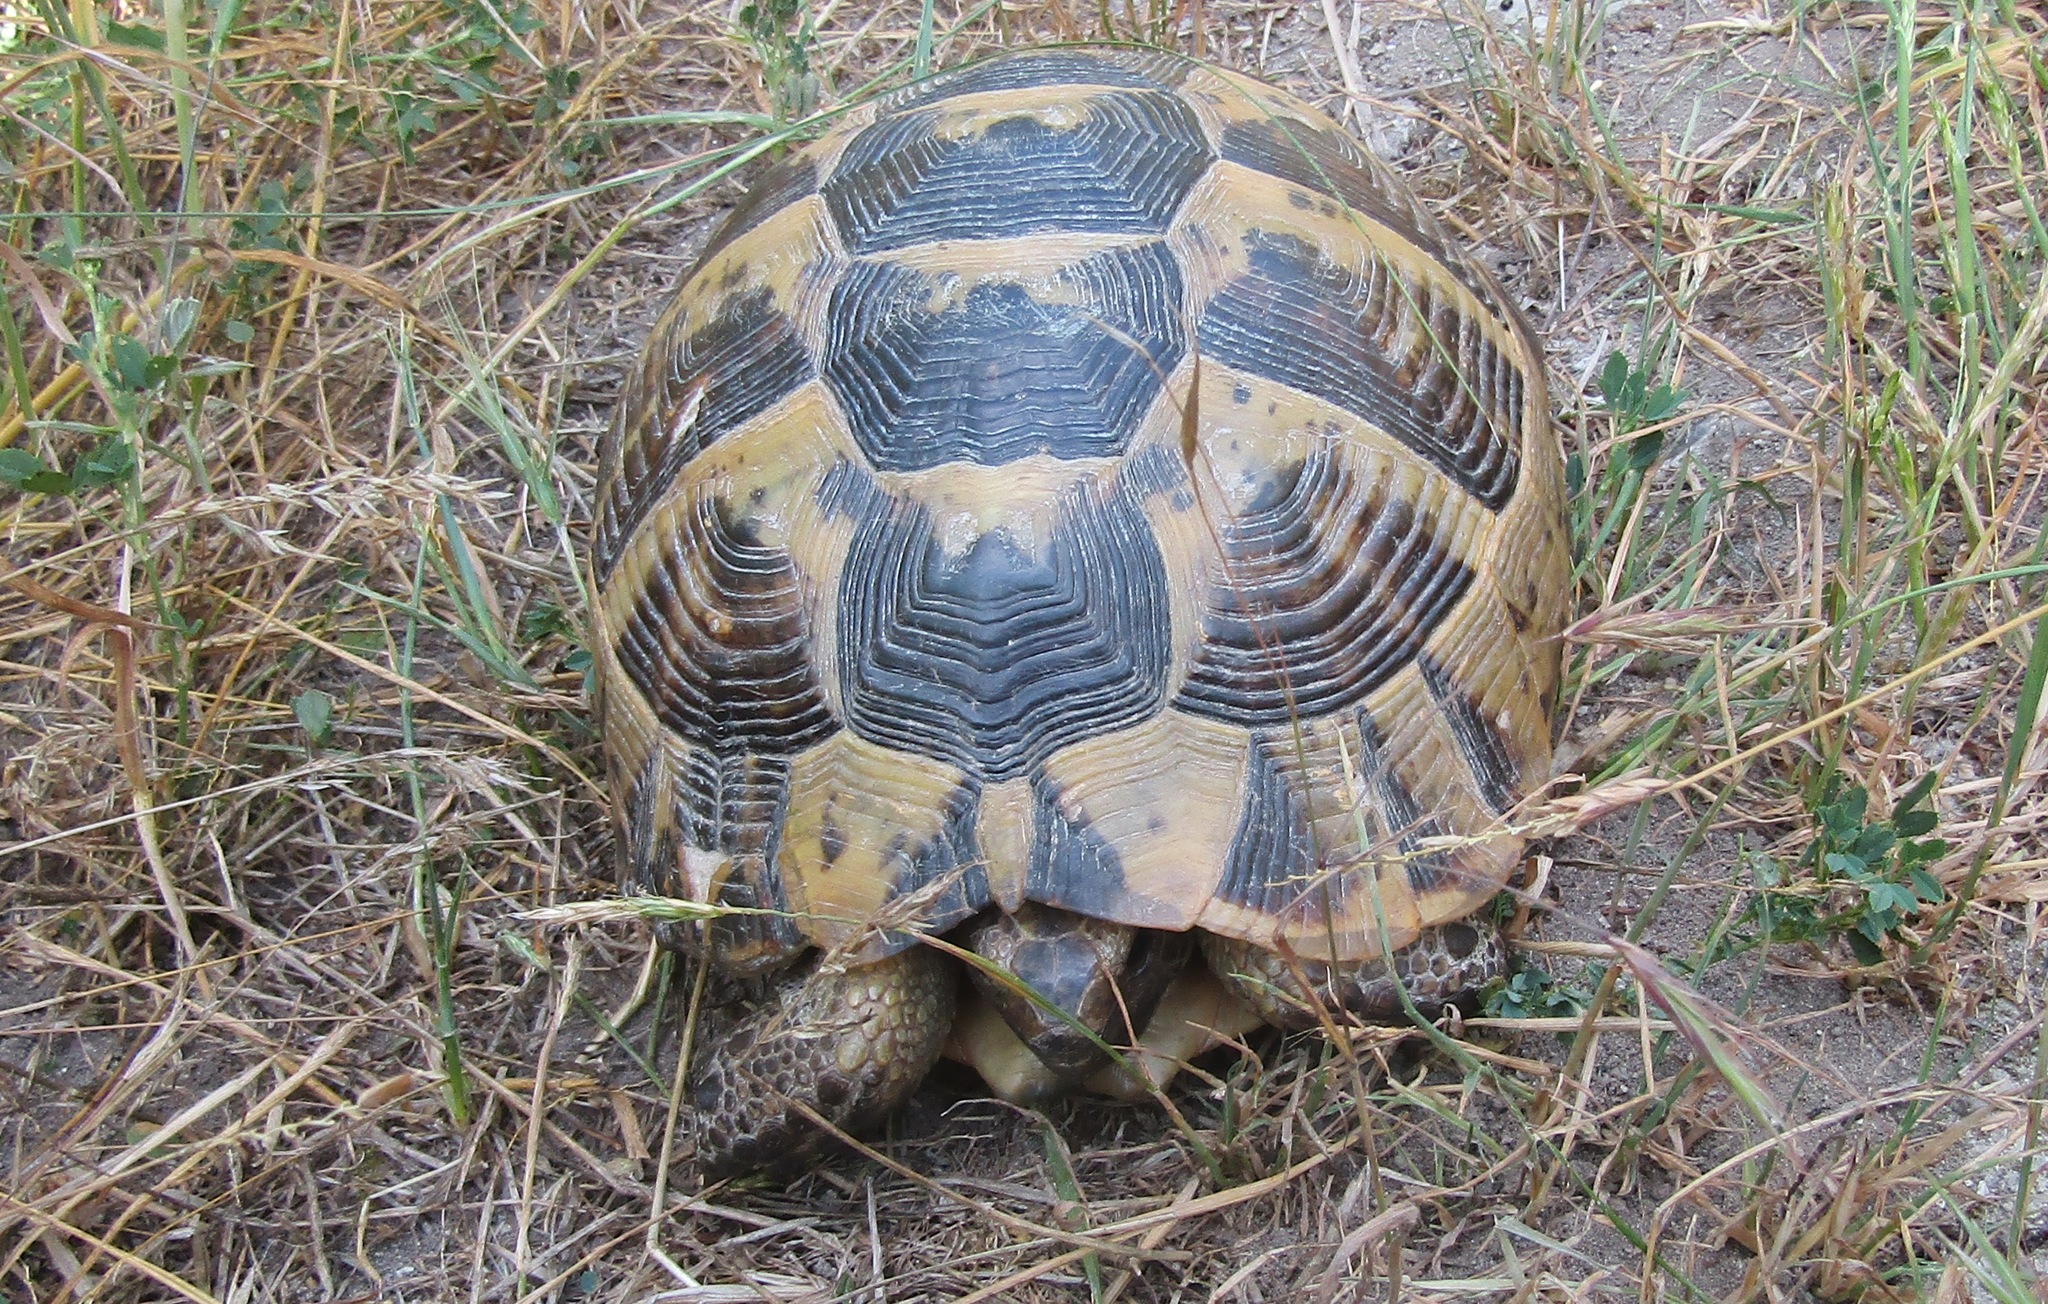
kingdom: Animalia
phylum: Chordata
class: Testudines
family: Testudinidae
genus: Testudo
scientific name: Testudo graeca
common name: Common tortoise
